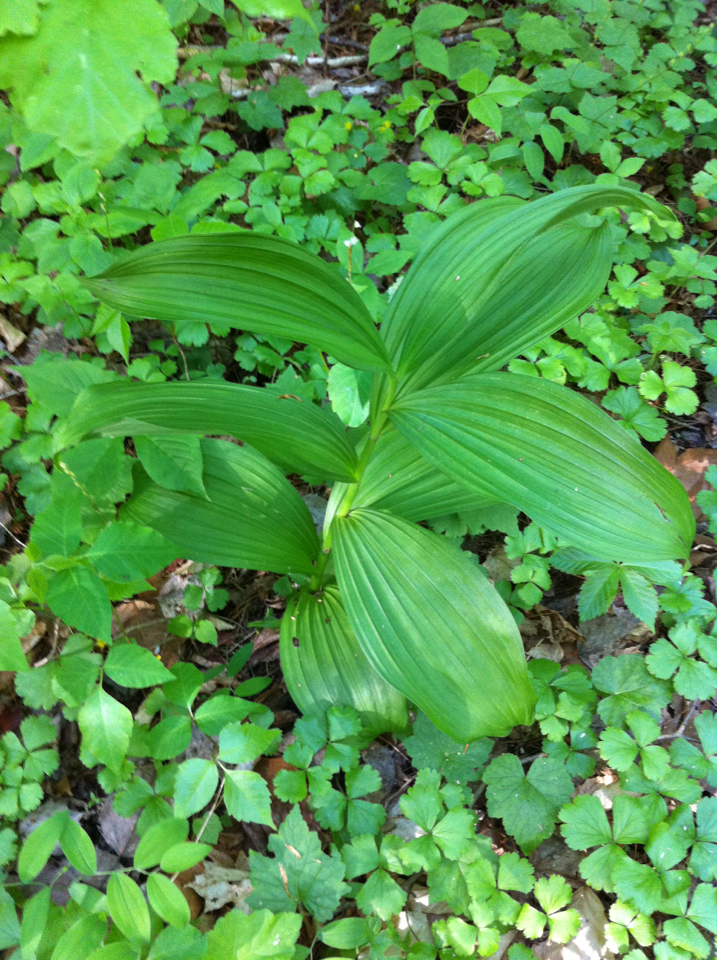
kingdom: Plantae
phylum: Tracheophyta
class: Liliopsida
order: Liliales
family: Melanthiaceae
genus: Veratrum
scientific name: Veratrum viride
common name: American false hellebore
